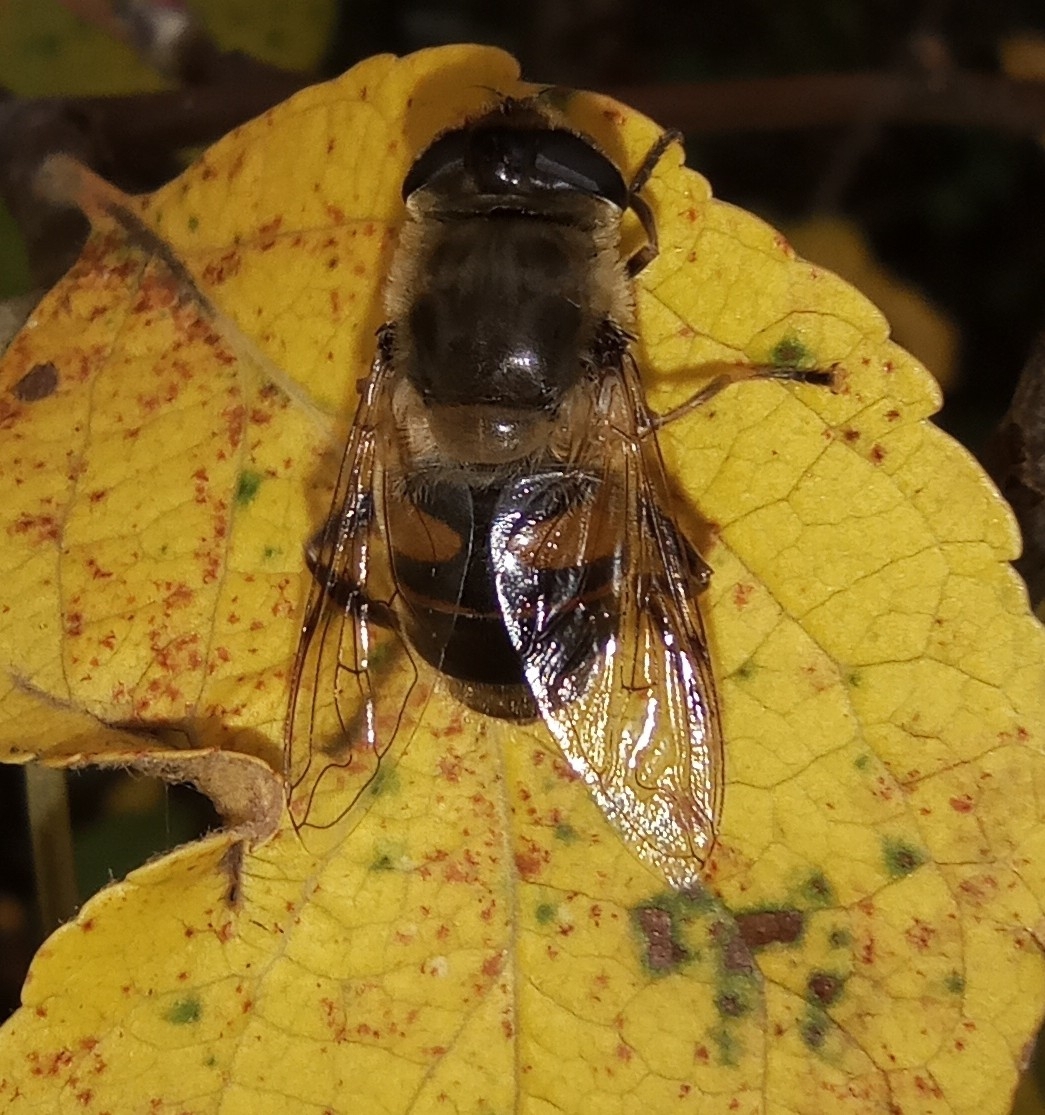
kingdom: Animalia
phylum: Arthropoda
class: Insecta
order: Diptera
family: Syrphidae
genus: Eristalis
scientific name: Eristalis tenax
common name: Drone fly
